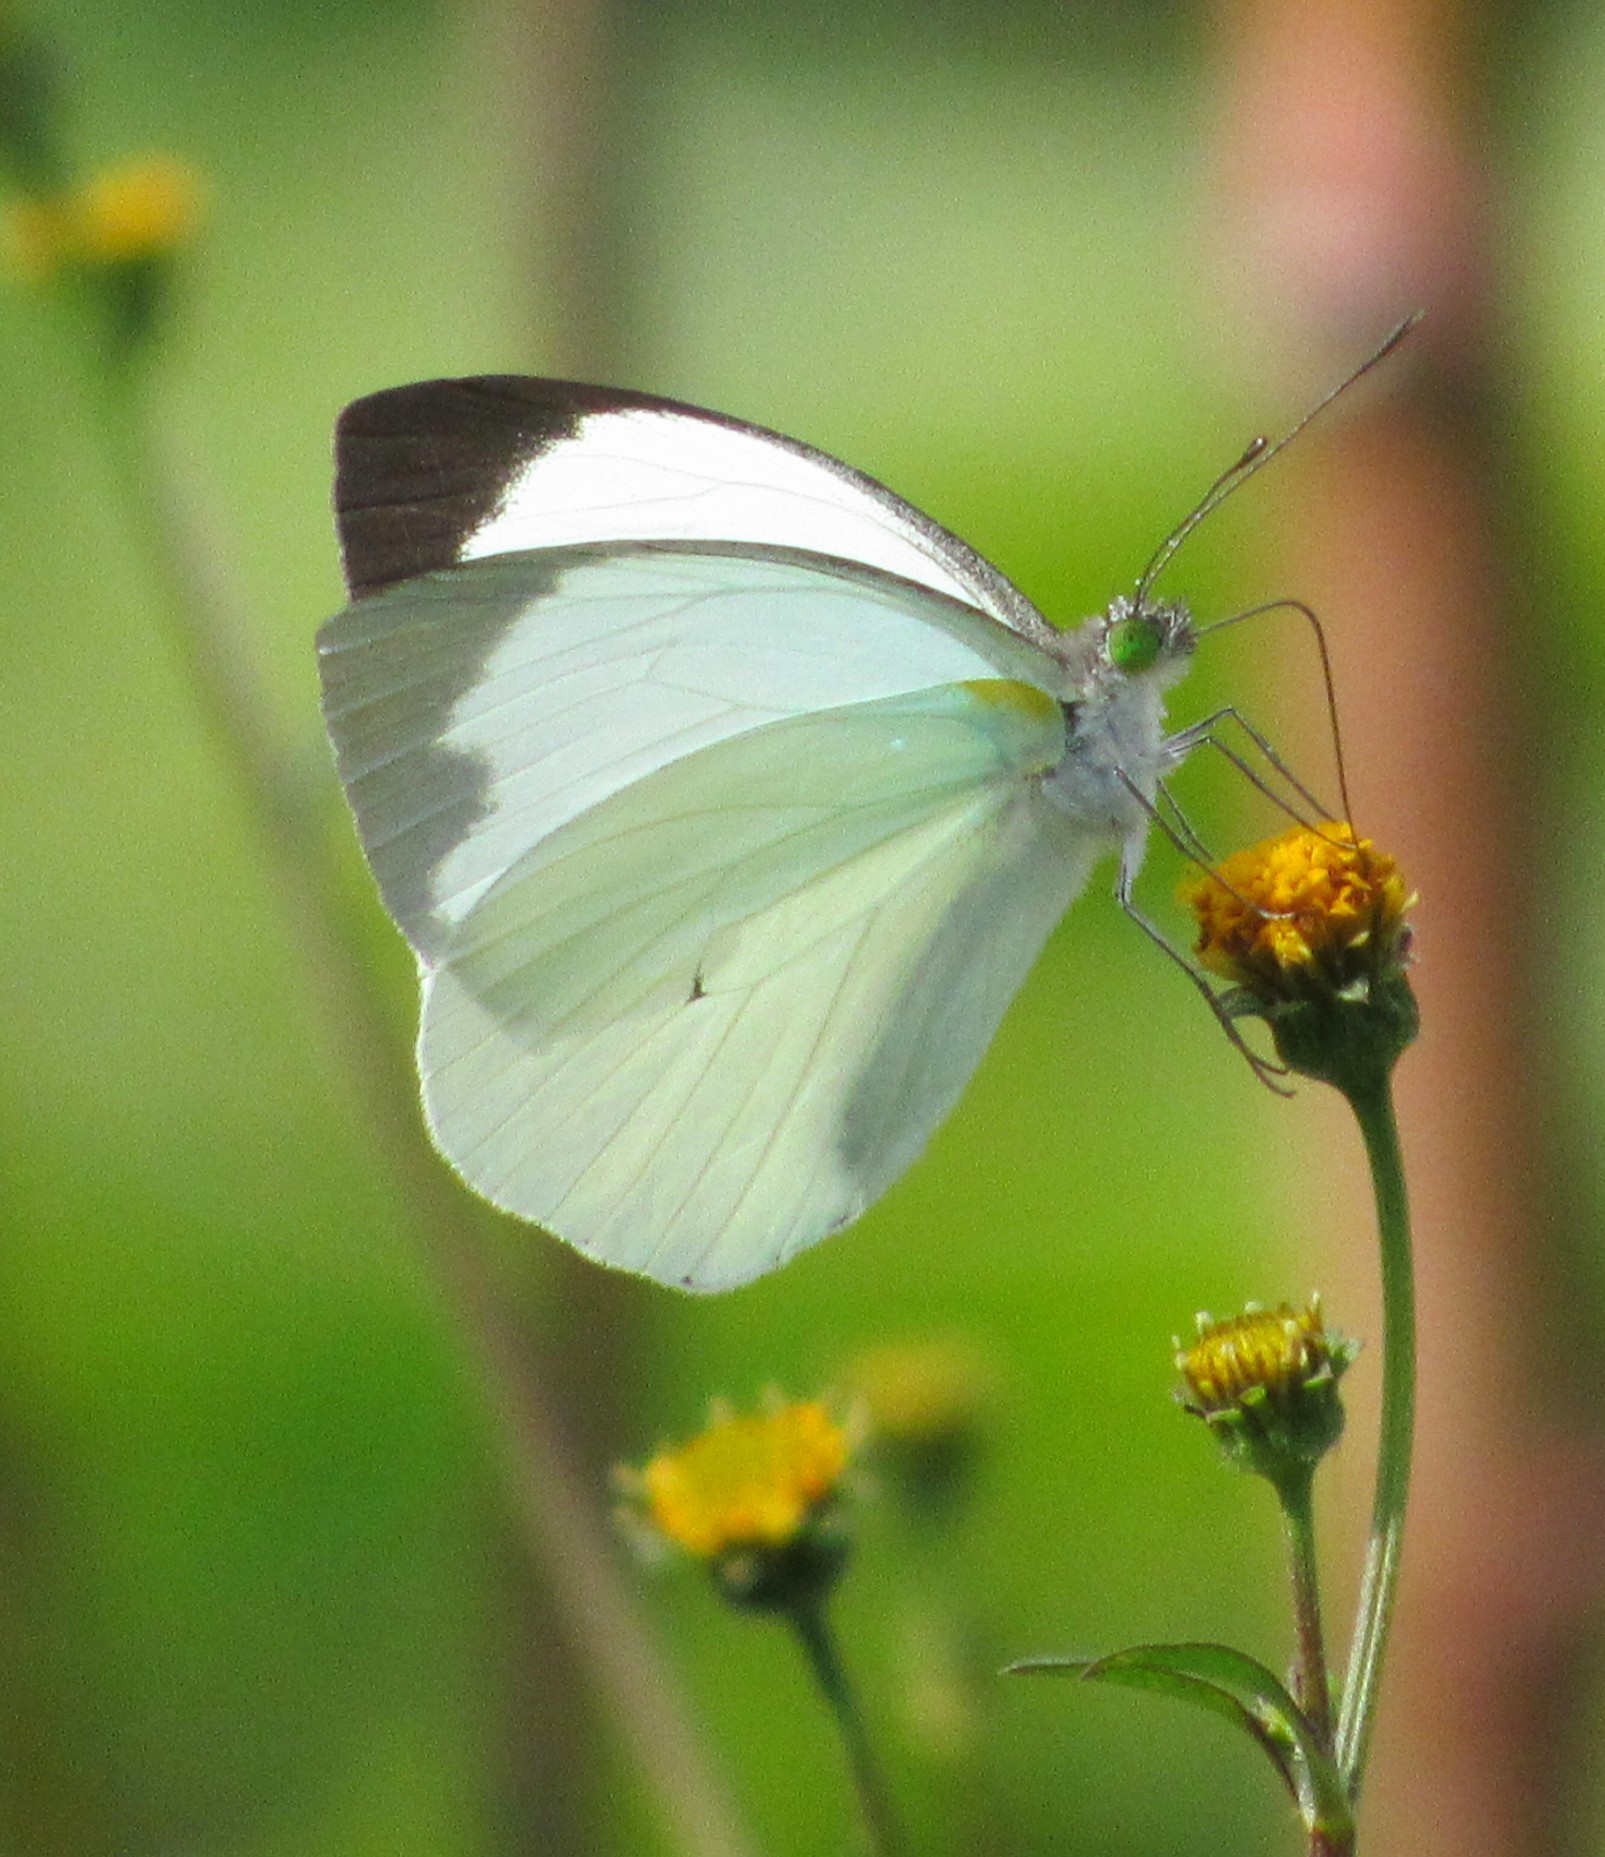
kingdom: Animalia
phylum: Arthropoda
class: Insecta
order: Lepidoptera
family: Pieridae
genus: Leptophobia
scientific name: Leptophobia aripa
